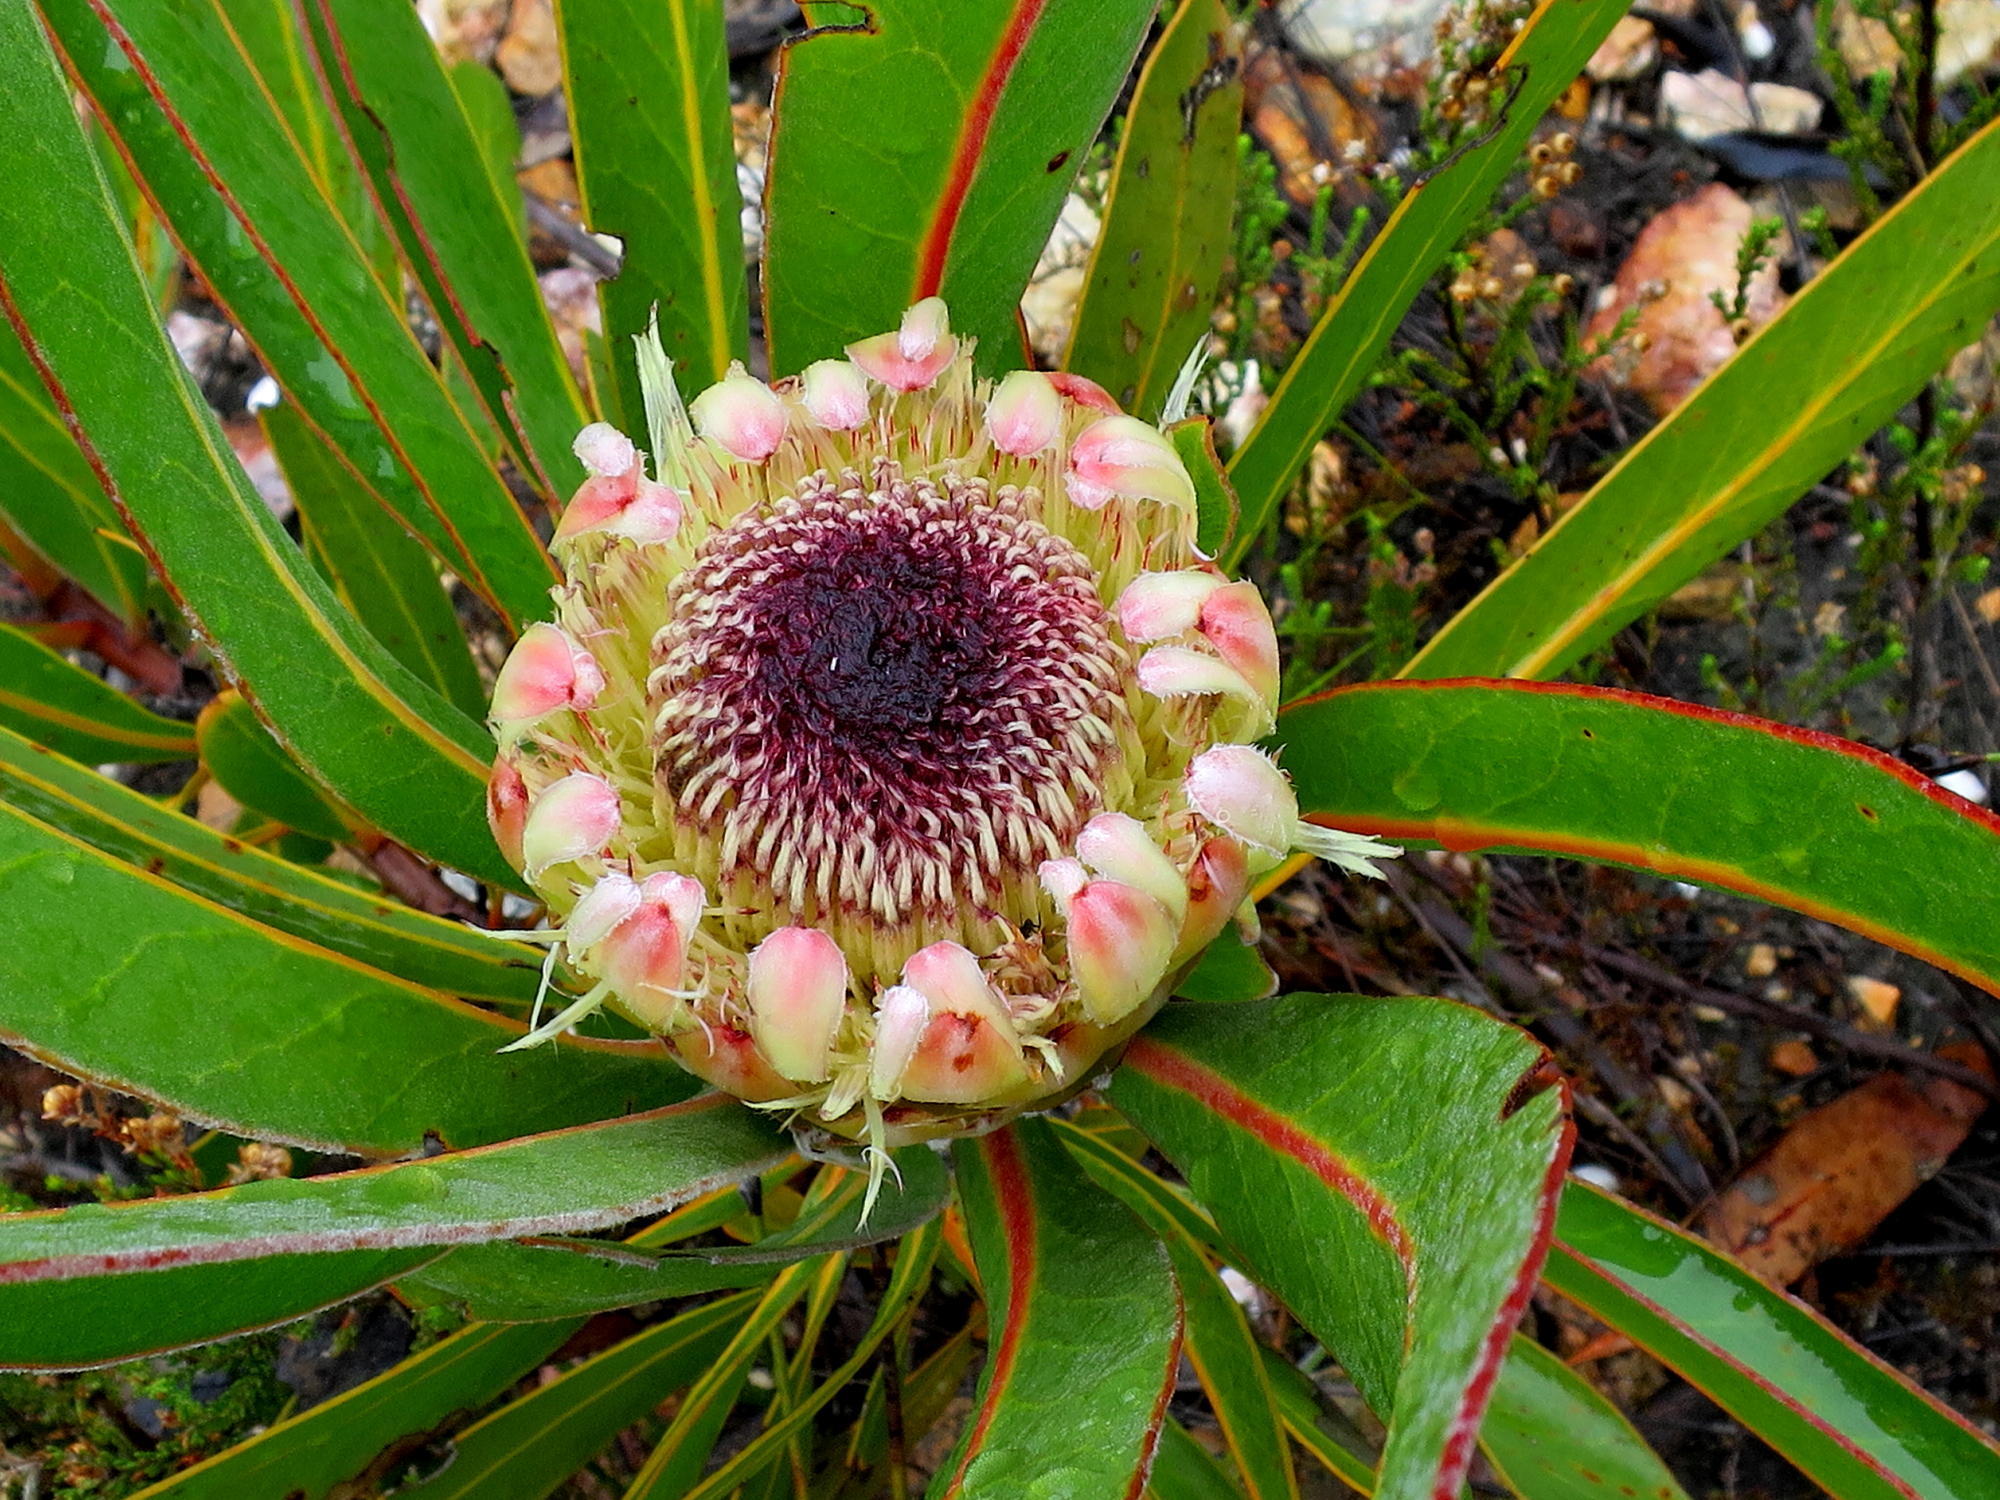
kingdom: Plantae
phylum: Tracheophyta
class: Magnoliopsida
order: Proteales
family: Proteaceae
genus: Protea
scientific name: Protea lorifolia
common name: Strap-leaved protea
